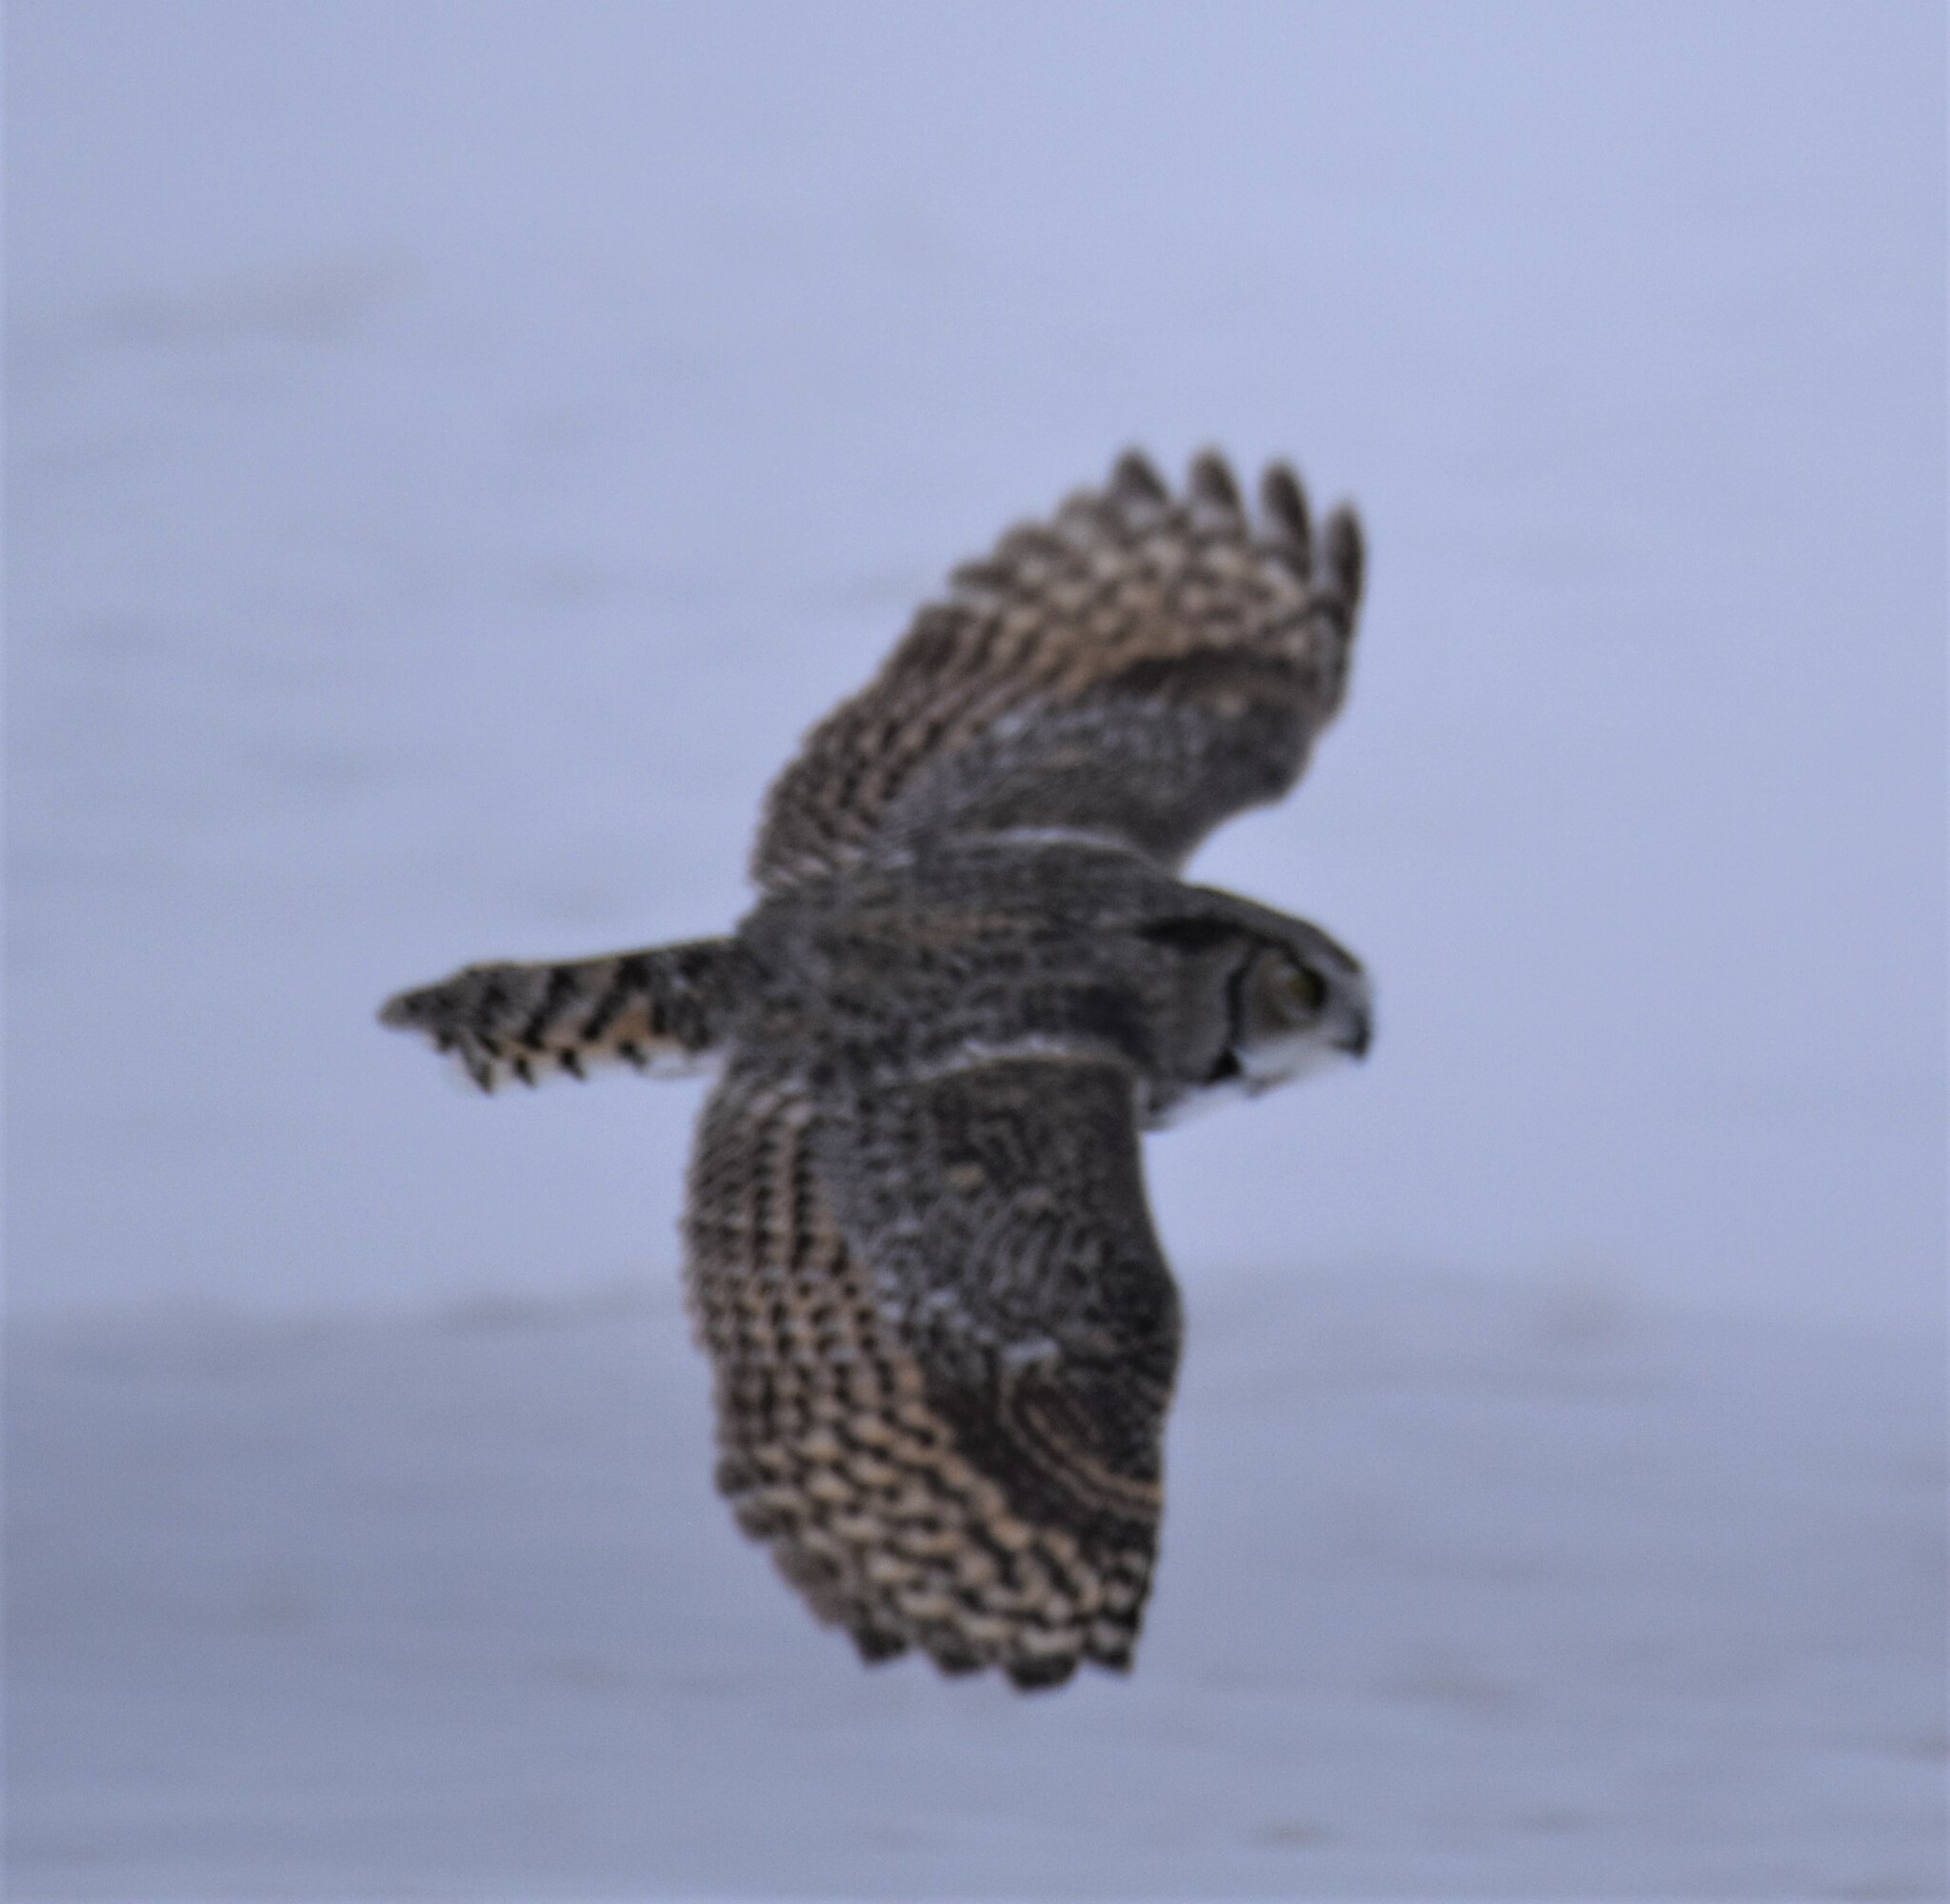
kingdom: Animalia
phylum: Chordata
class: Aves
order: Strigiformes
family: Strigidae
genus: Bubo
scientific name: Bubo virginianus
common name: Great horned owl
